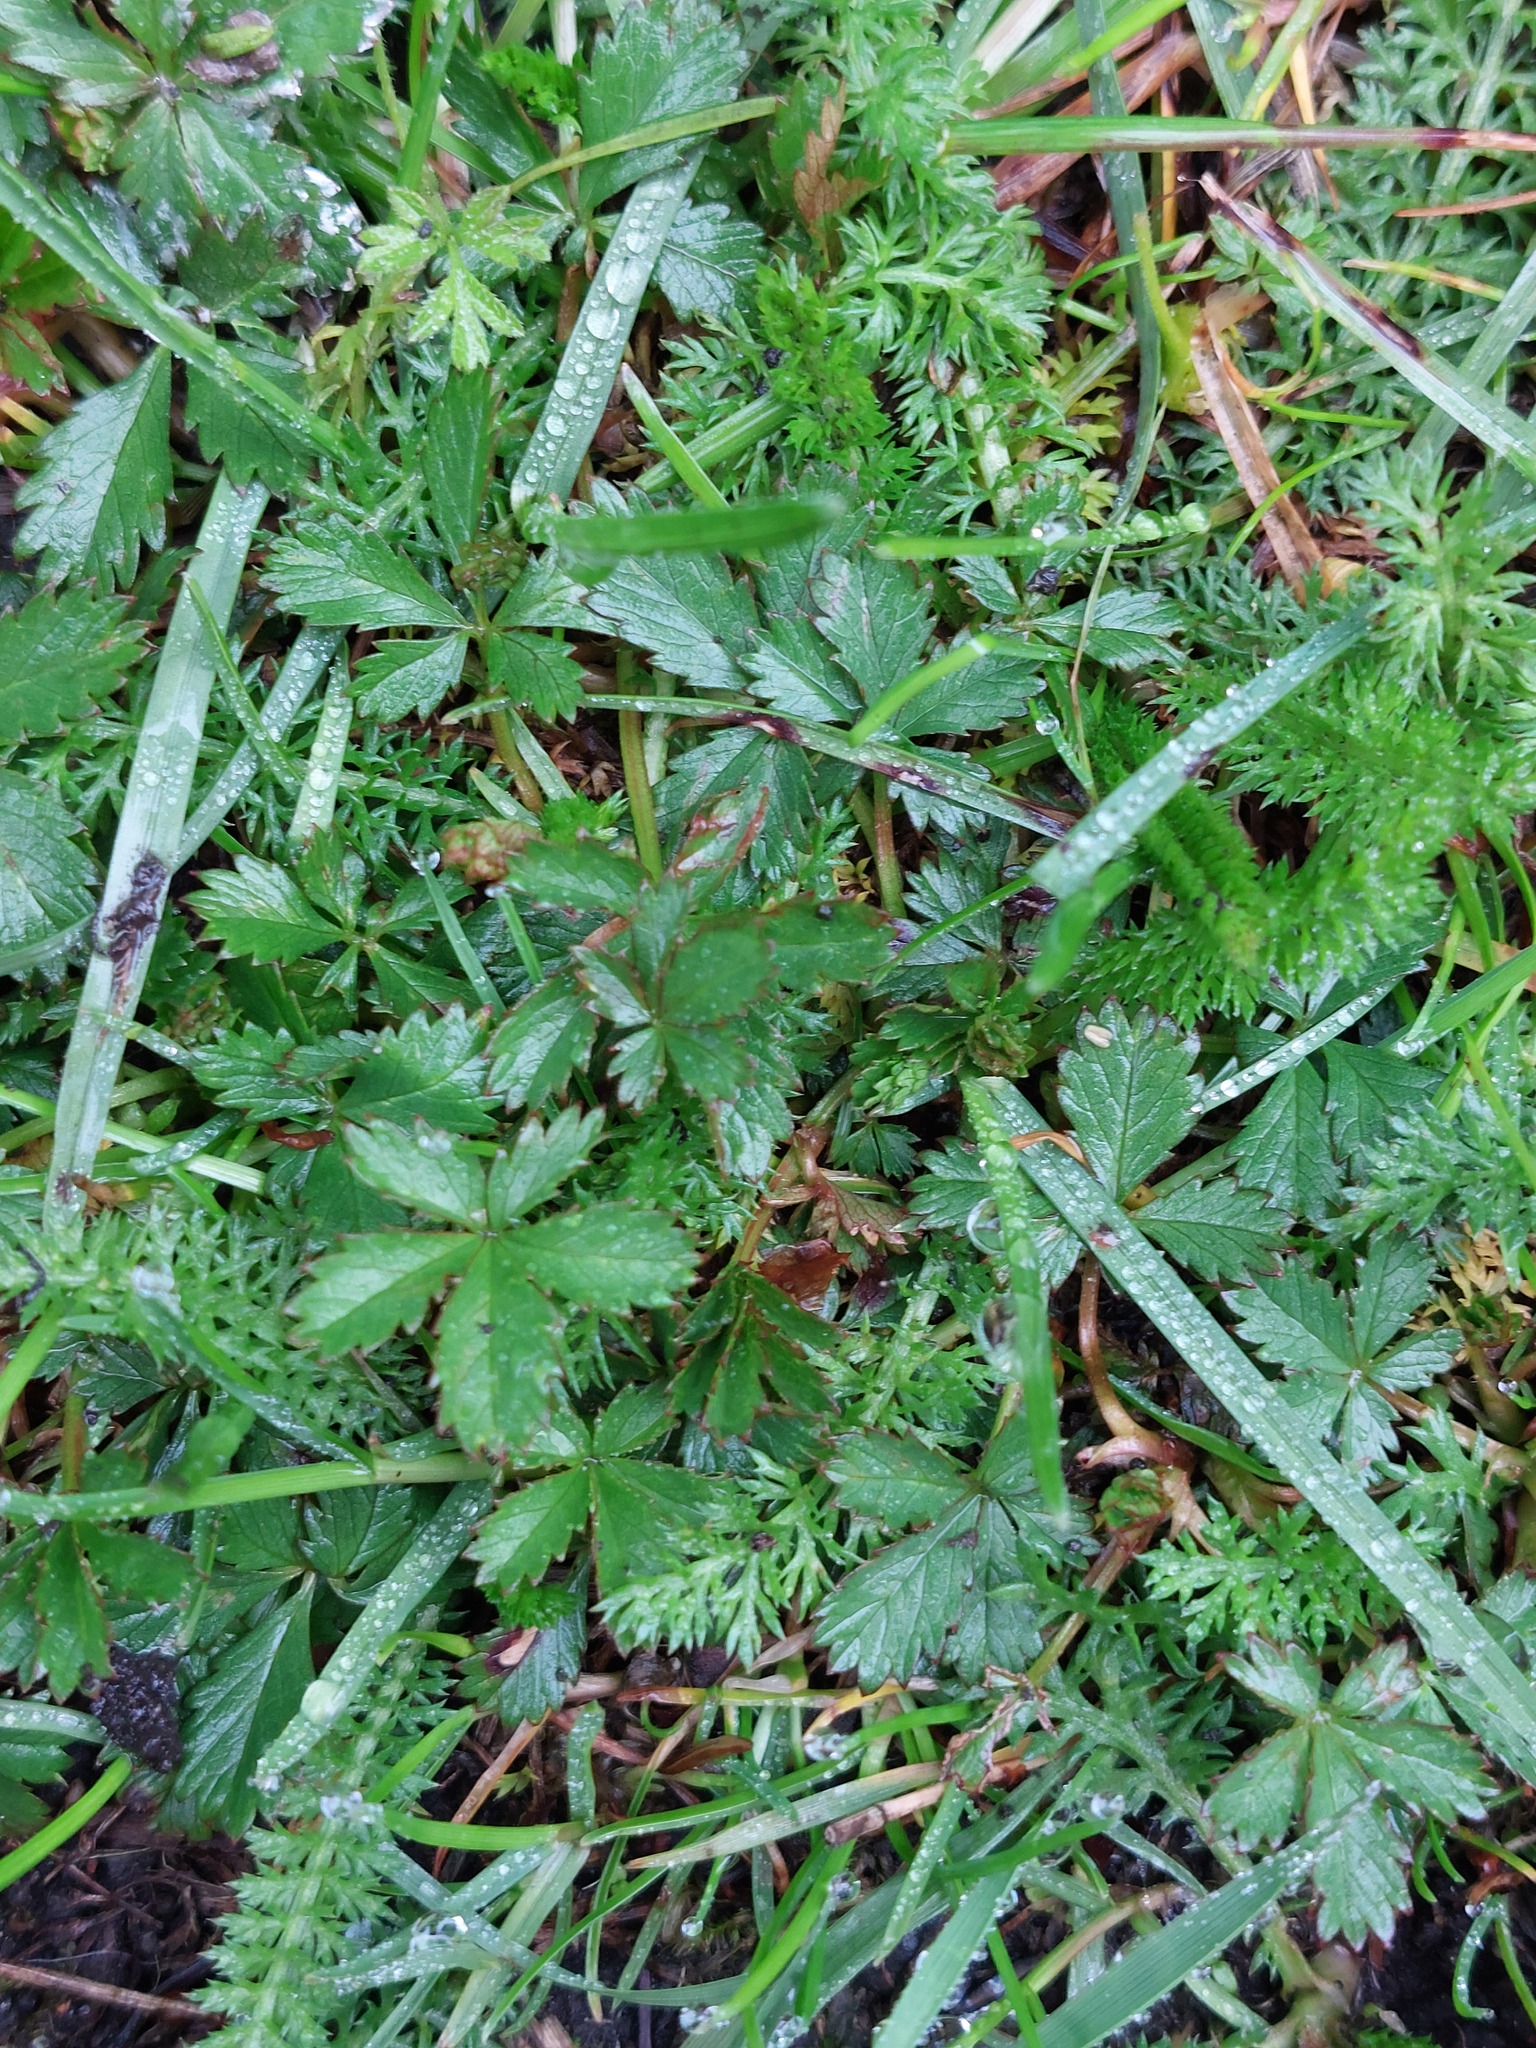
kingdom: Plantae
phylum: Tracheophyta
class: Magnoliopsida
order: Rosales
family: Rosaceae
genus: Potentilla
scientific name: Potentilla reptans
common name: Creeping cinquefoil
